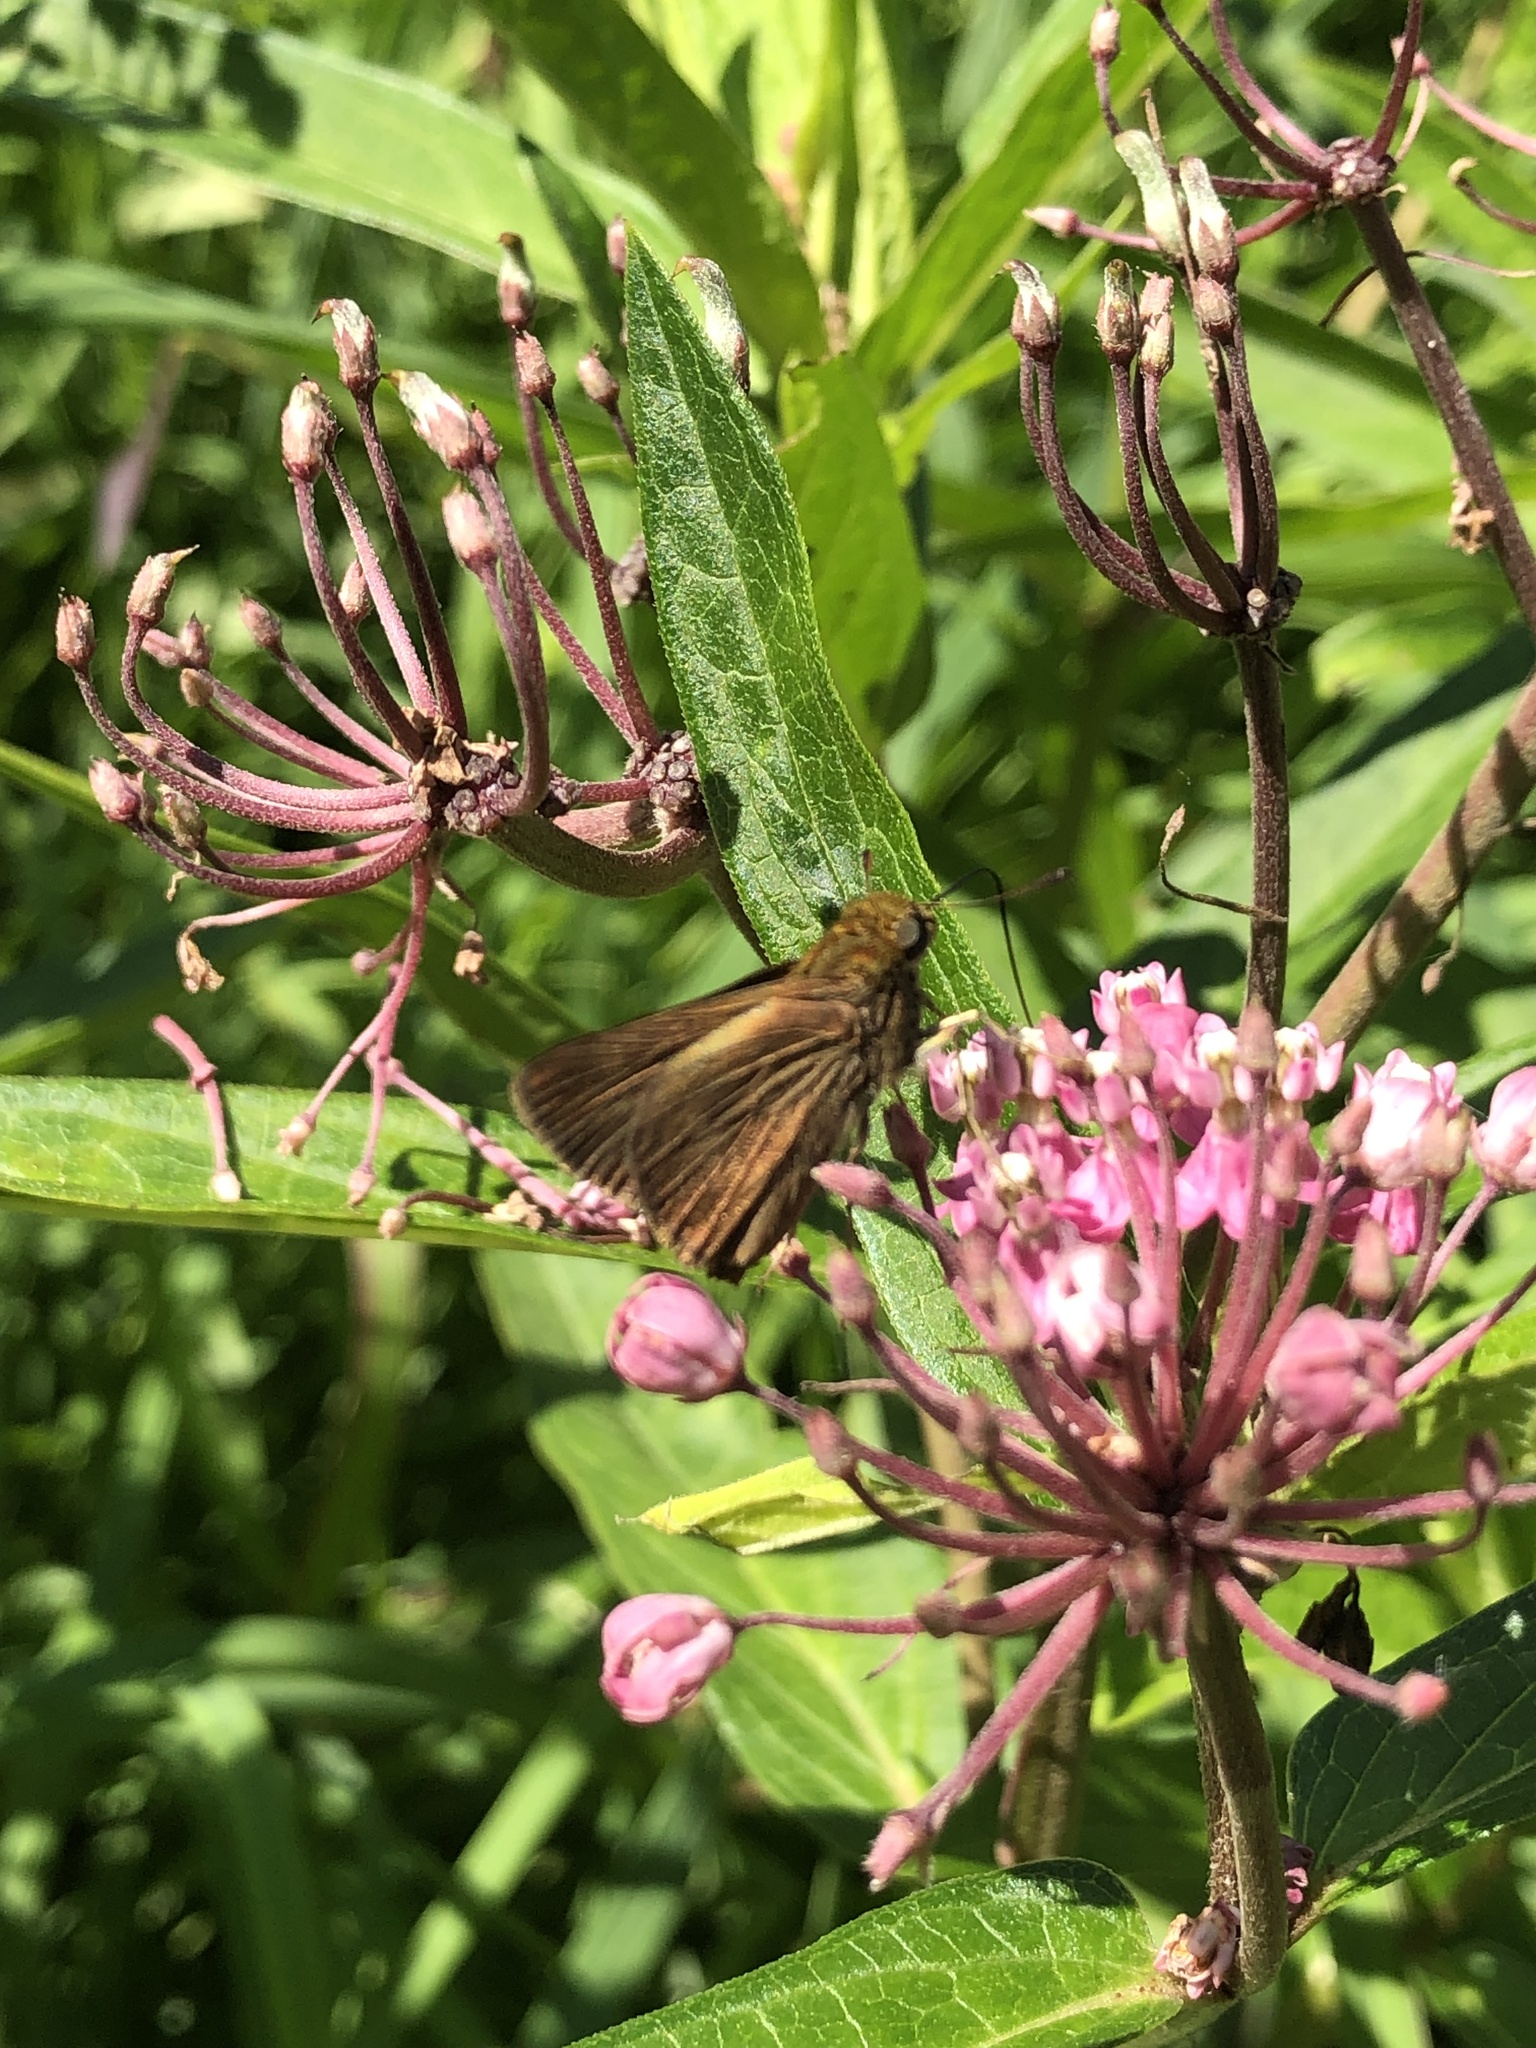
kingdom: Animalia
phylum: Arthropoda
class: Insecta
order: Lepidoptera
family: Hesperiidae
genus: Euphyes
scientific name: Euphyes vestris
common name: Dun skipper
